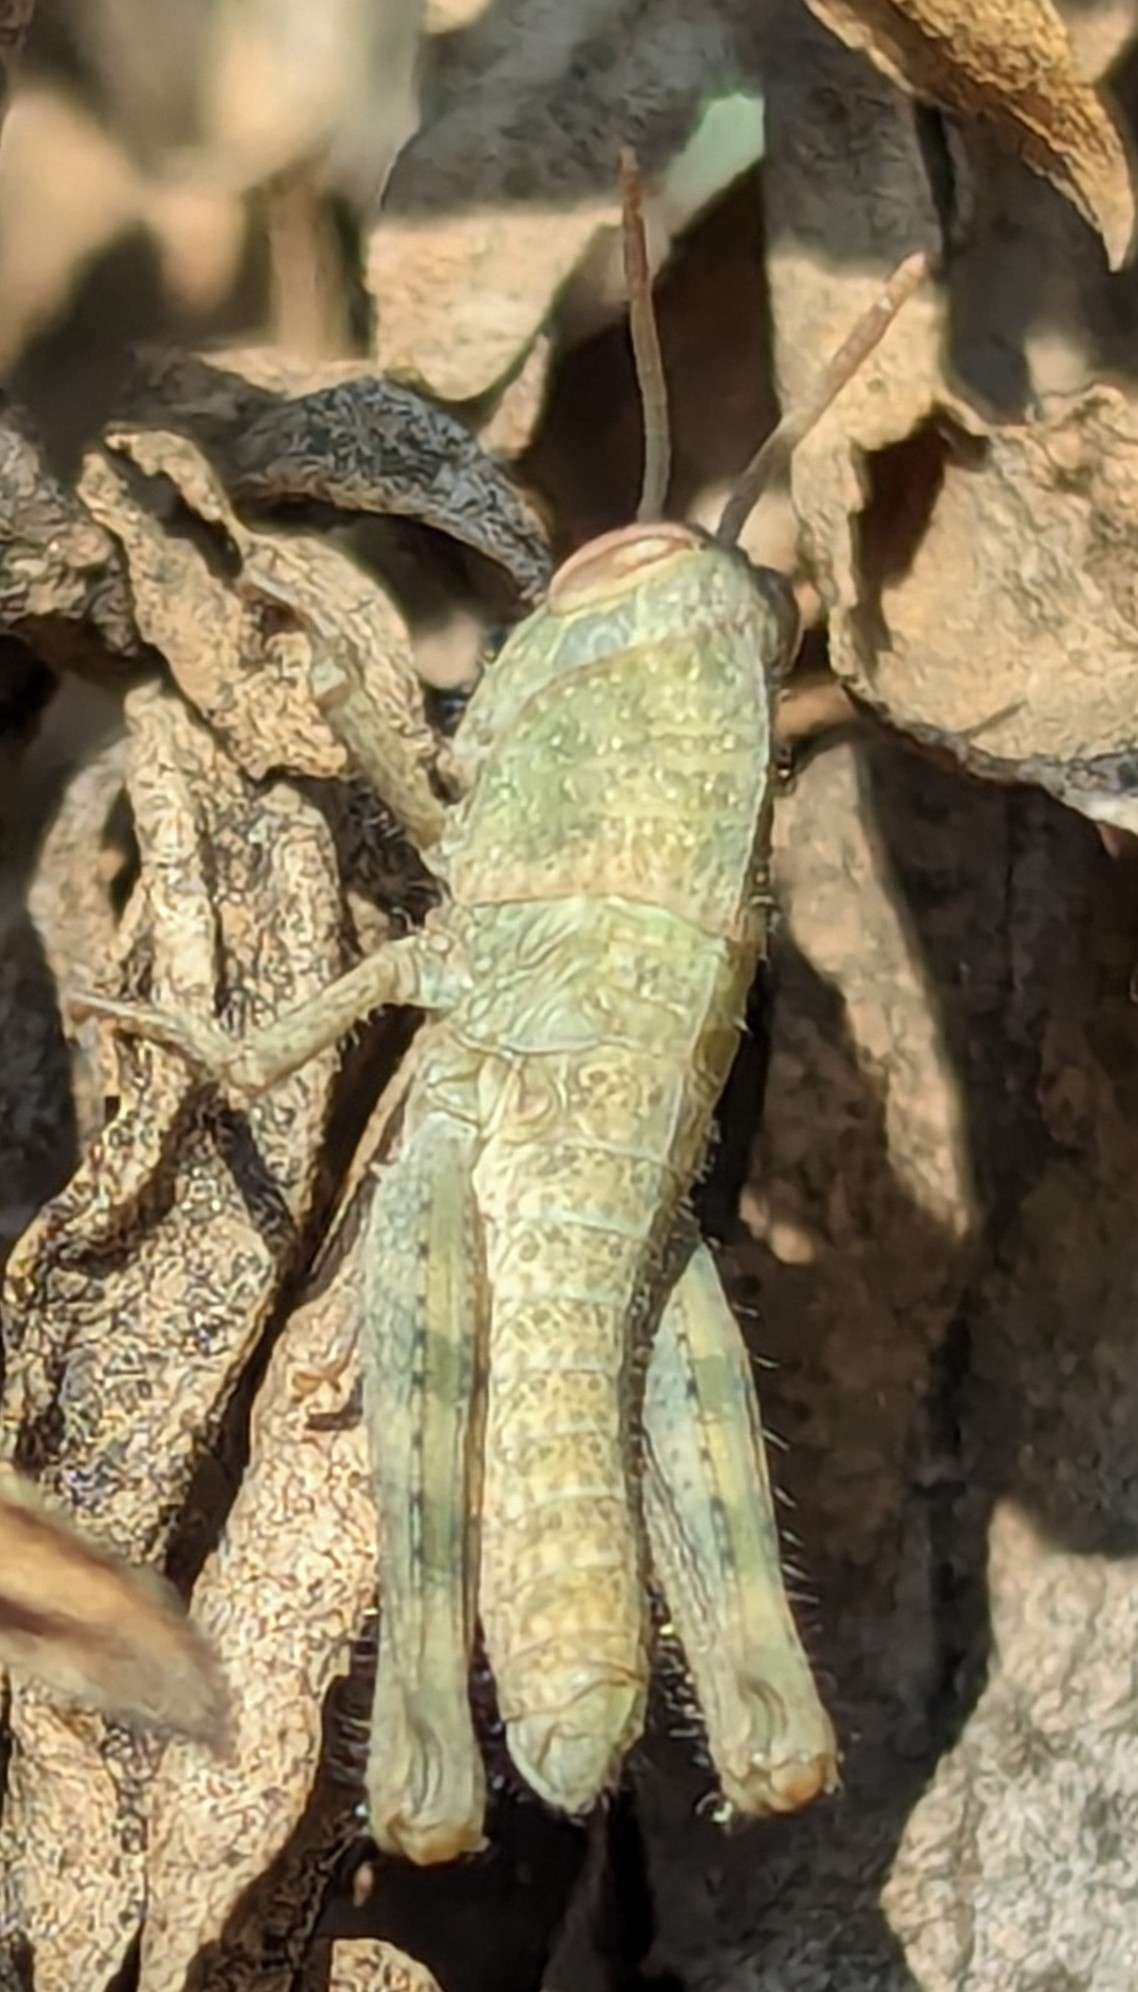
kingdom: Animalia
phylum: Arthropoda
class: Insecta
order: Orthoptera
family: Acrididae
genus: Schistocerca
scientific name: Schistocerca nitens
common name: Vagrant grasshopper
